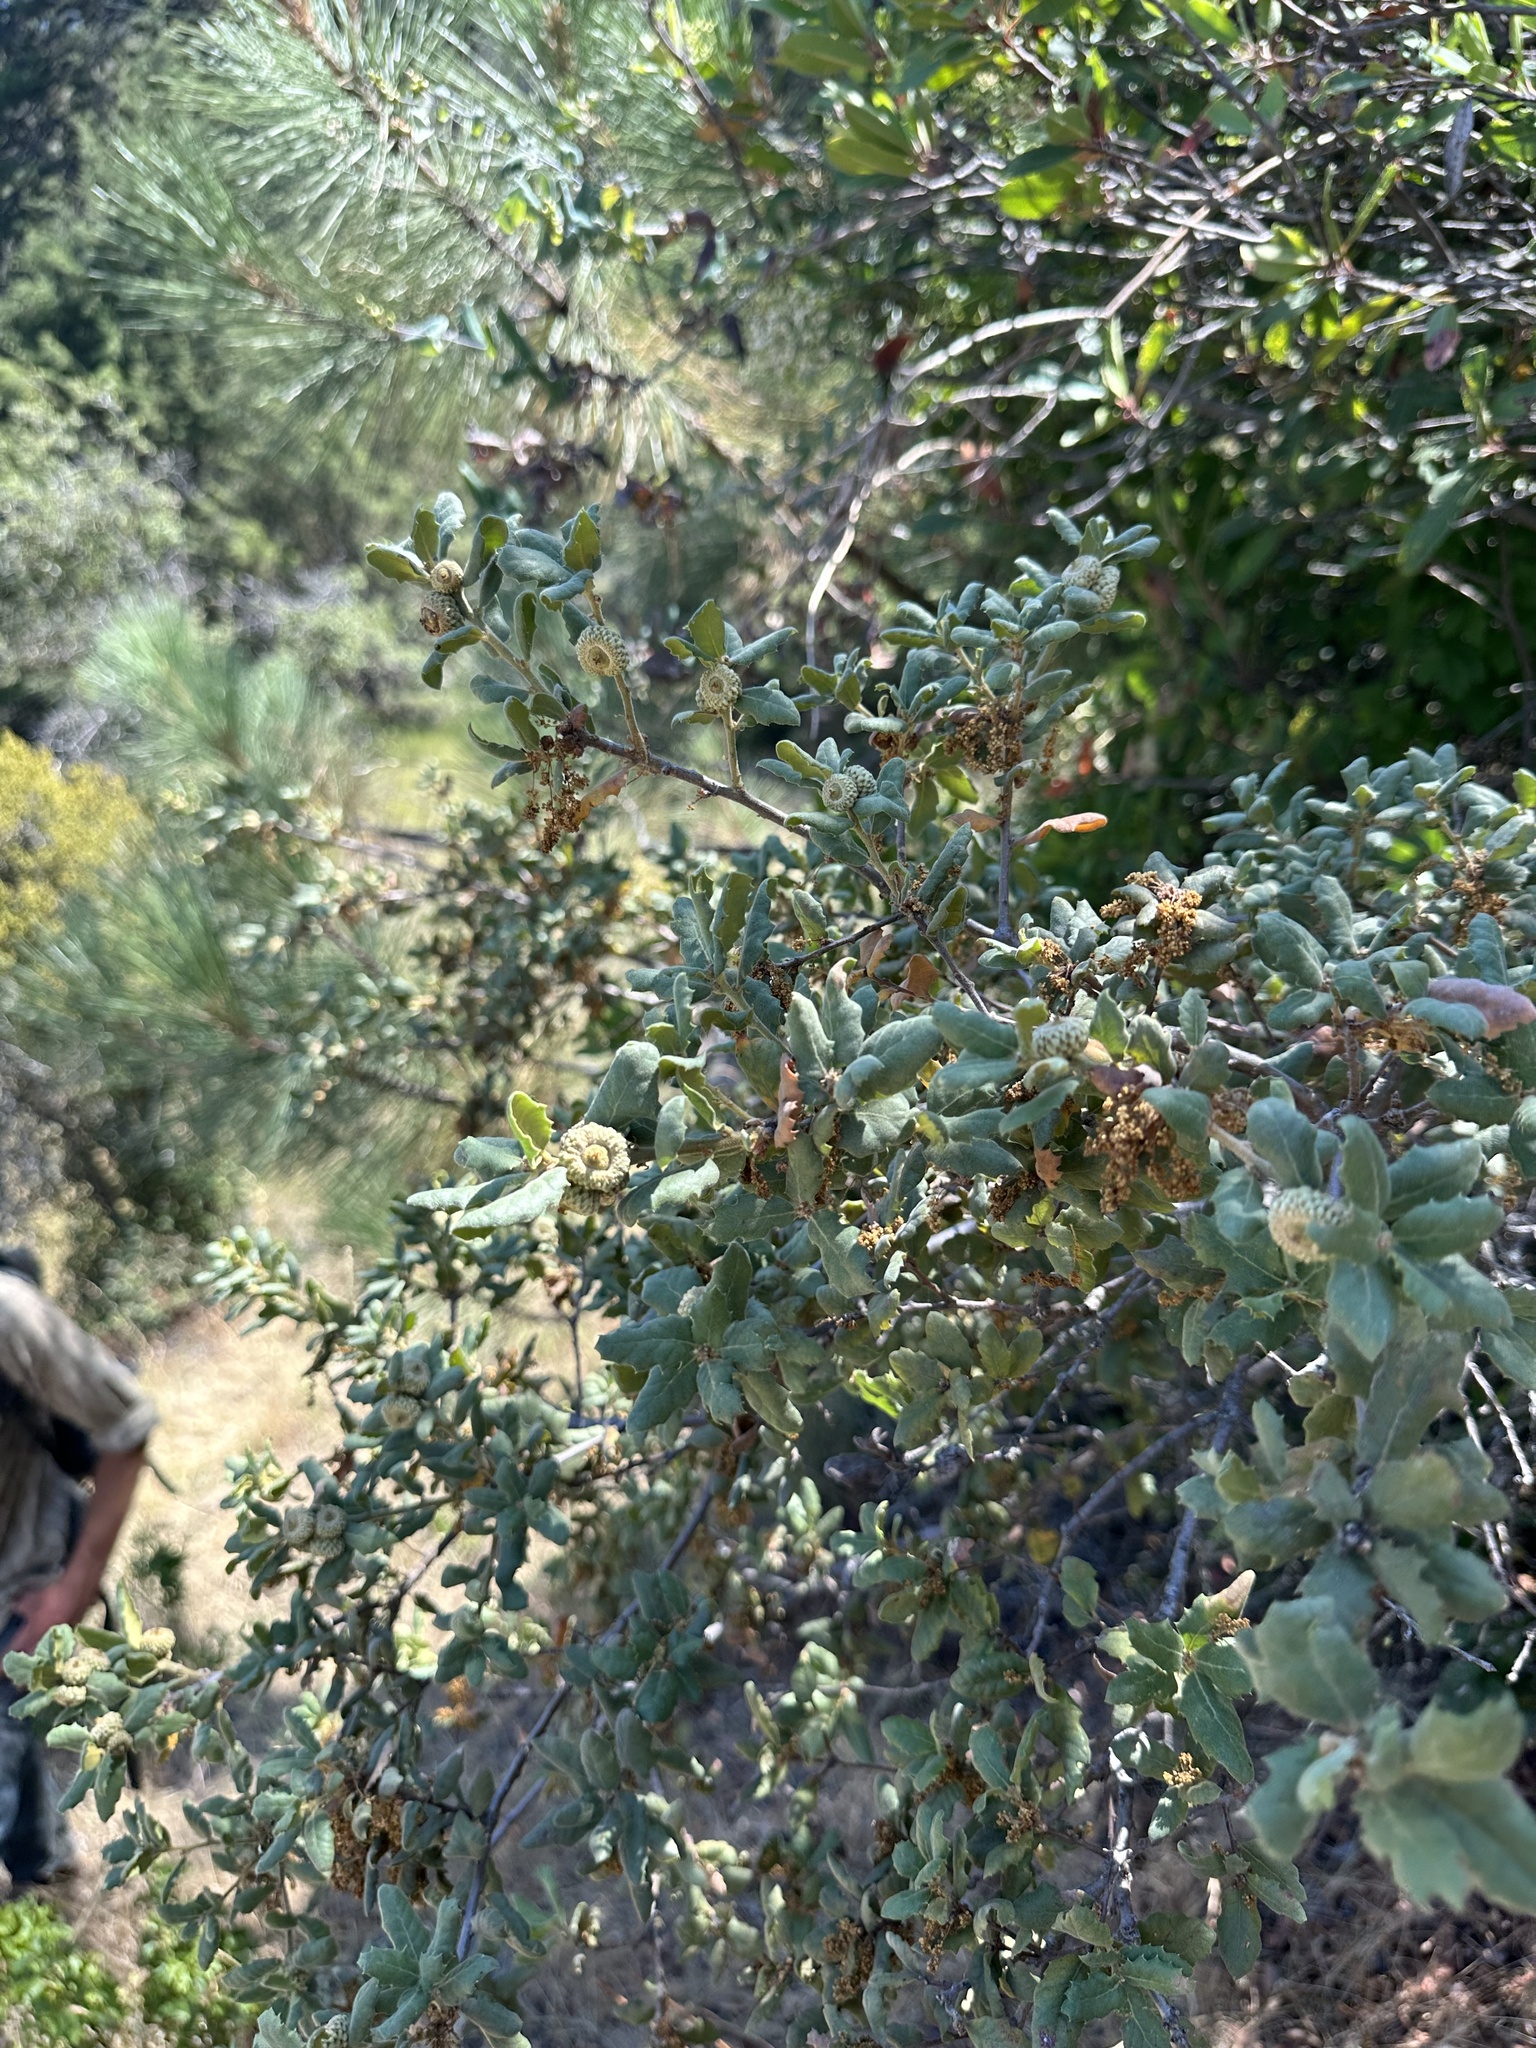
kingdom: Plantae
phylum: Tracheophyta
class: Magnoliopsida
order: Fagales
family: Fagaceae
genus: Quercus
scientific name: Quercus durata
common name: Leather oak
